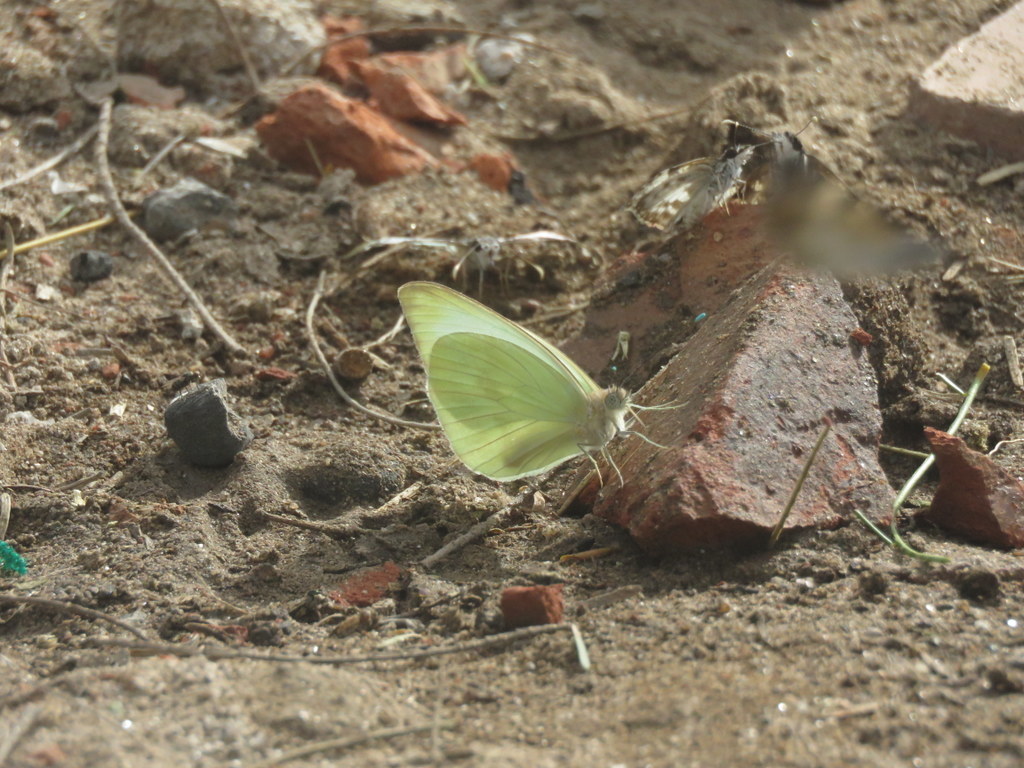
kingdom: Animalia
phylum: Arthropoda
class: Insecta
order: Lepidoptera
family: Pieridae
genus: Ascia
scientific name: Ascia monuste
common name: Great southern white
